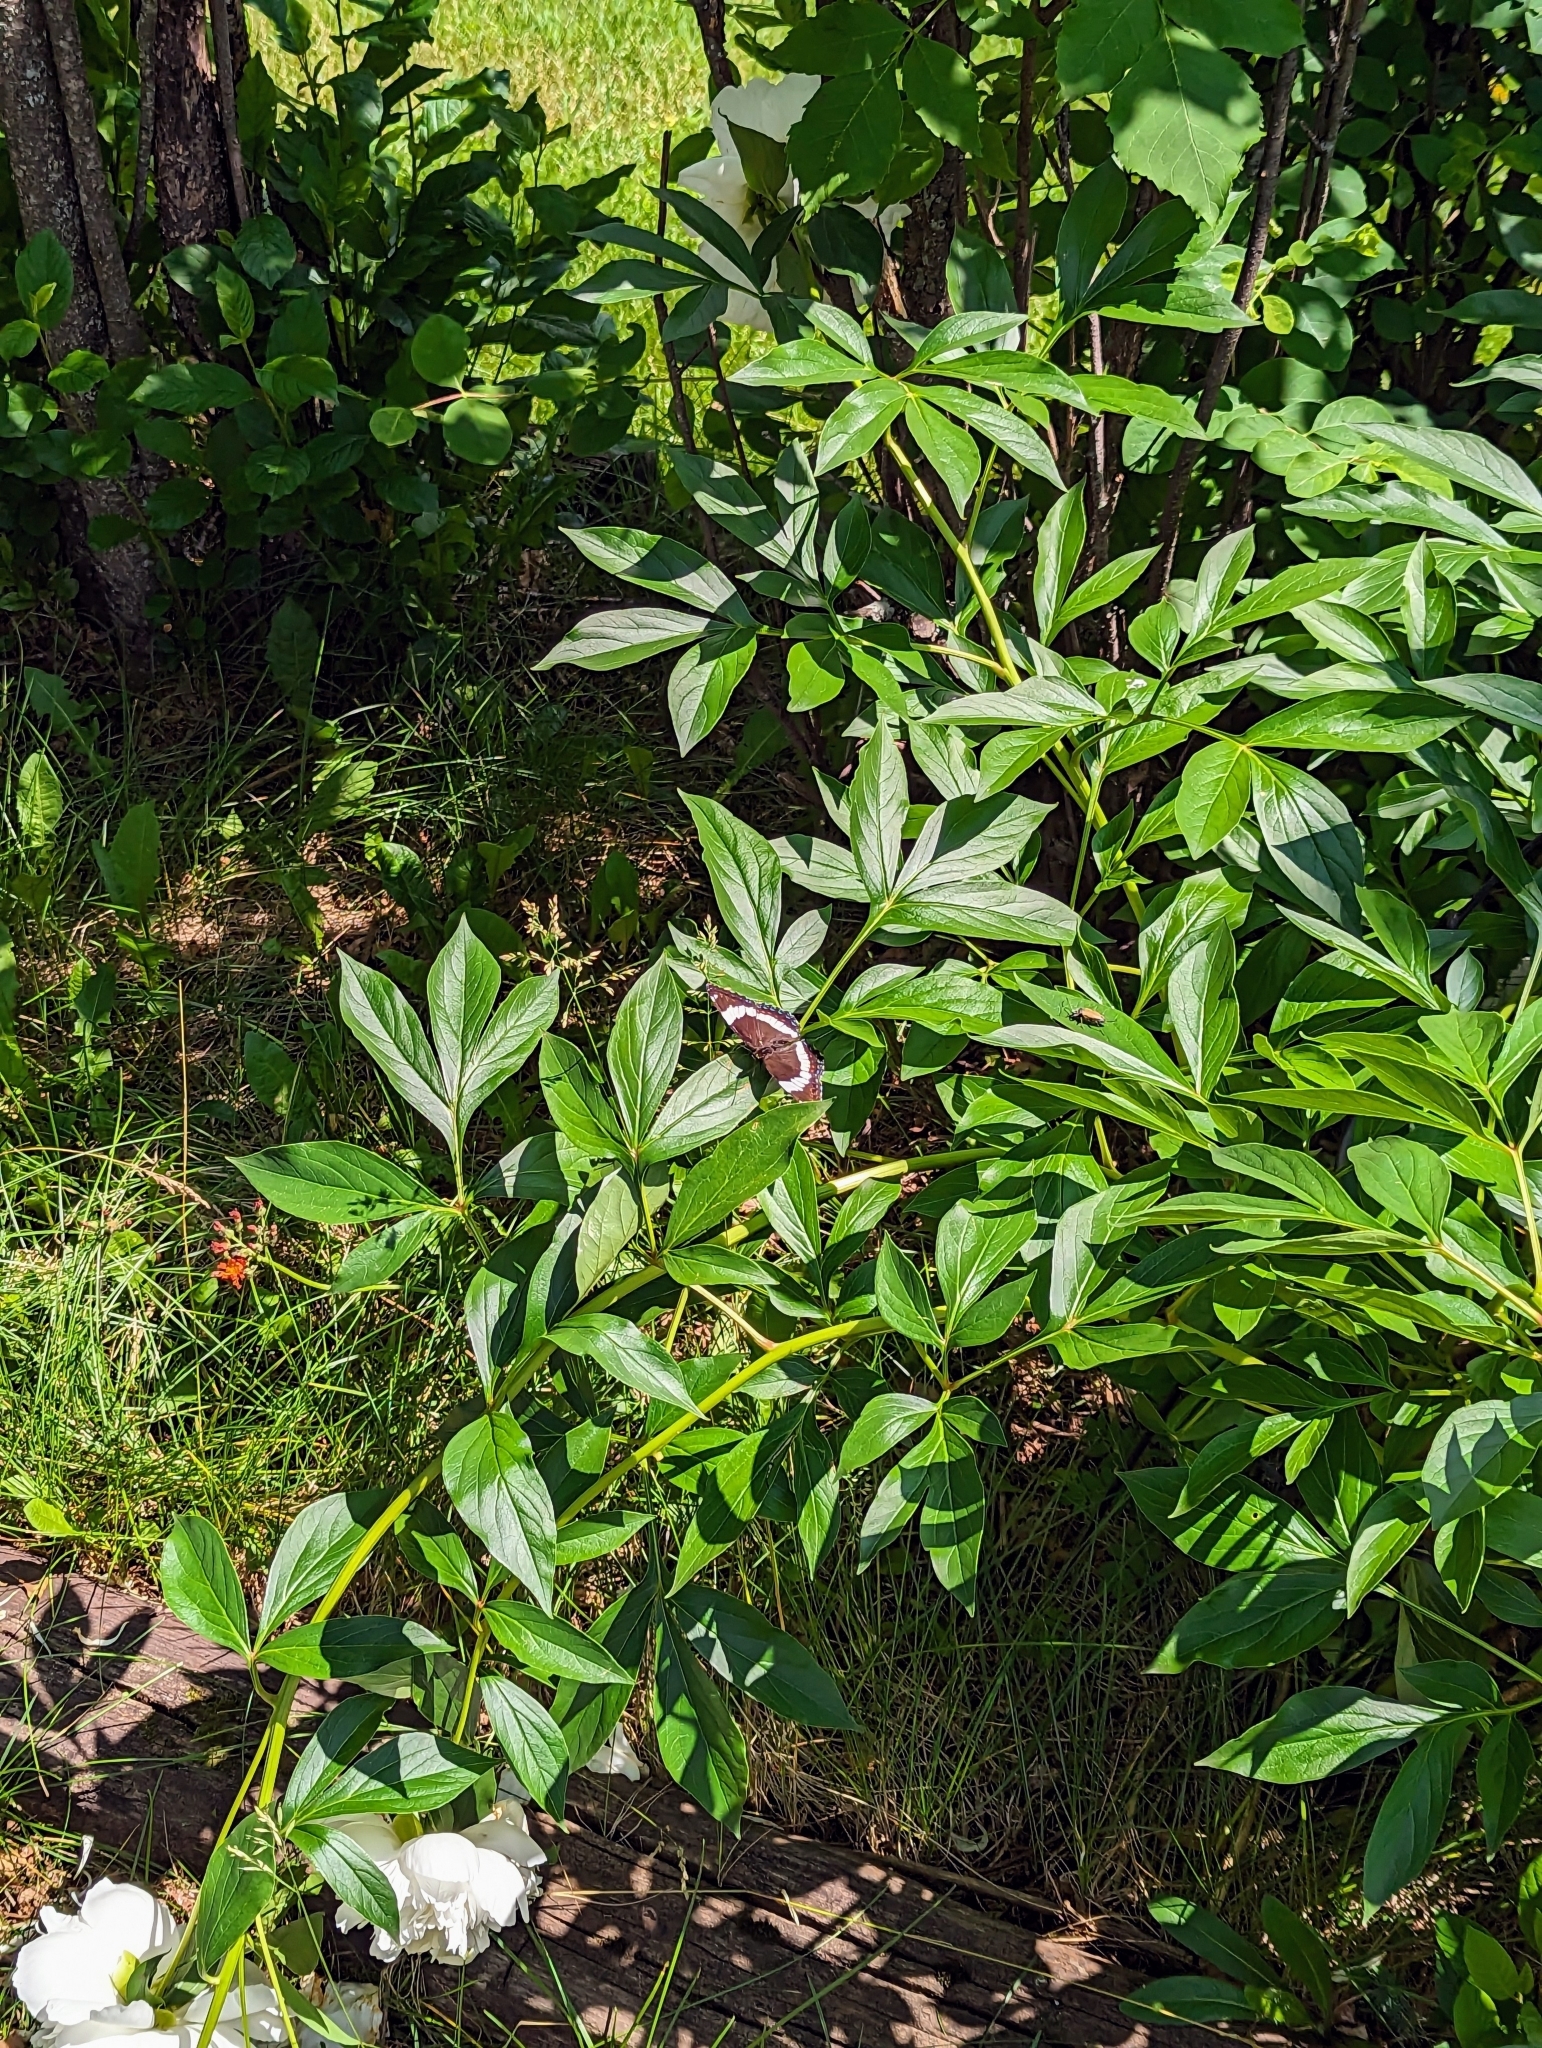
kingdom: Animalia
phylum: Arthropoda
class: Insecta
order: Lepidoptera
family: Nymphalidae
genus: Limenitis
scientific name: Limenitis arthemis
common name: Red-spotted admiral
